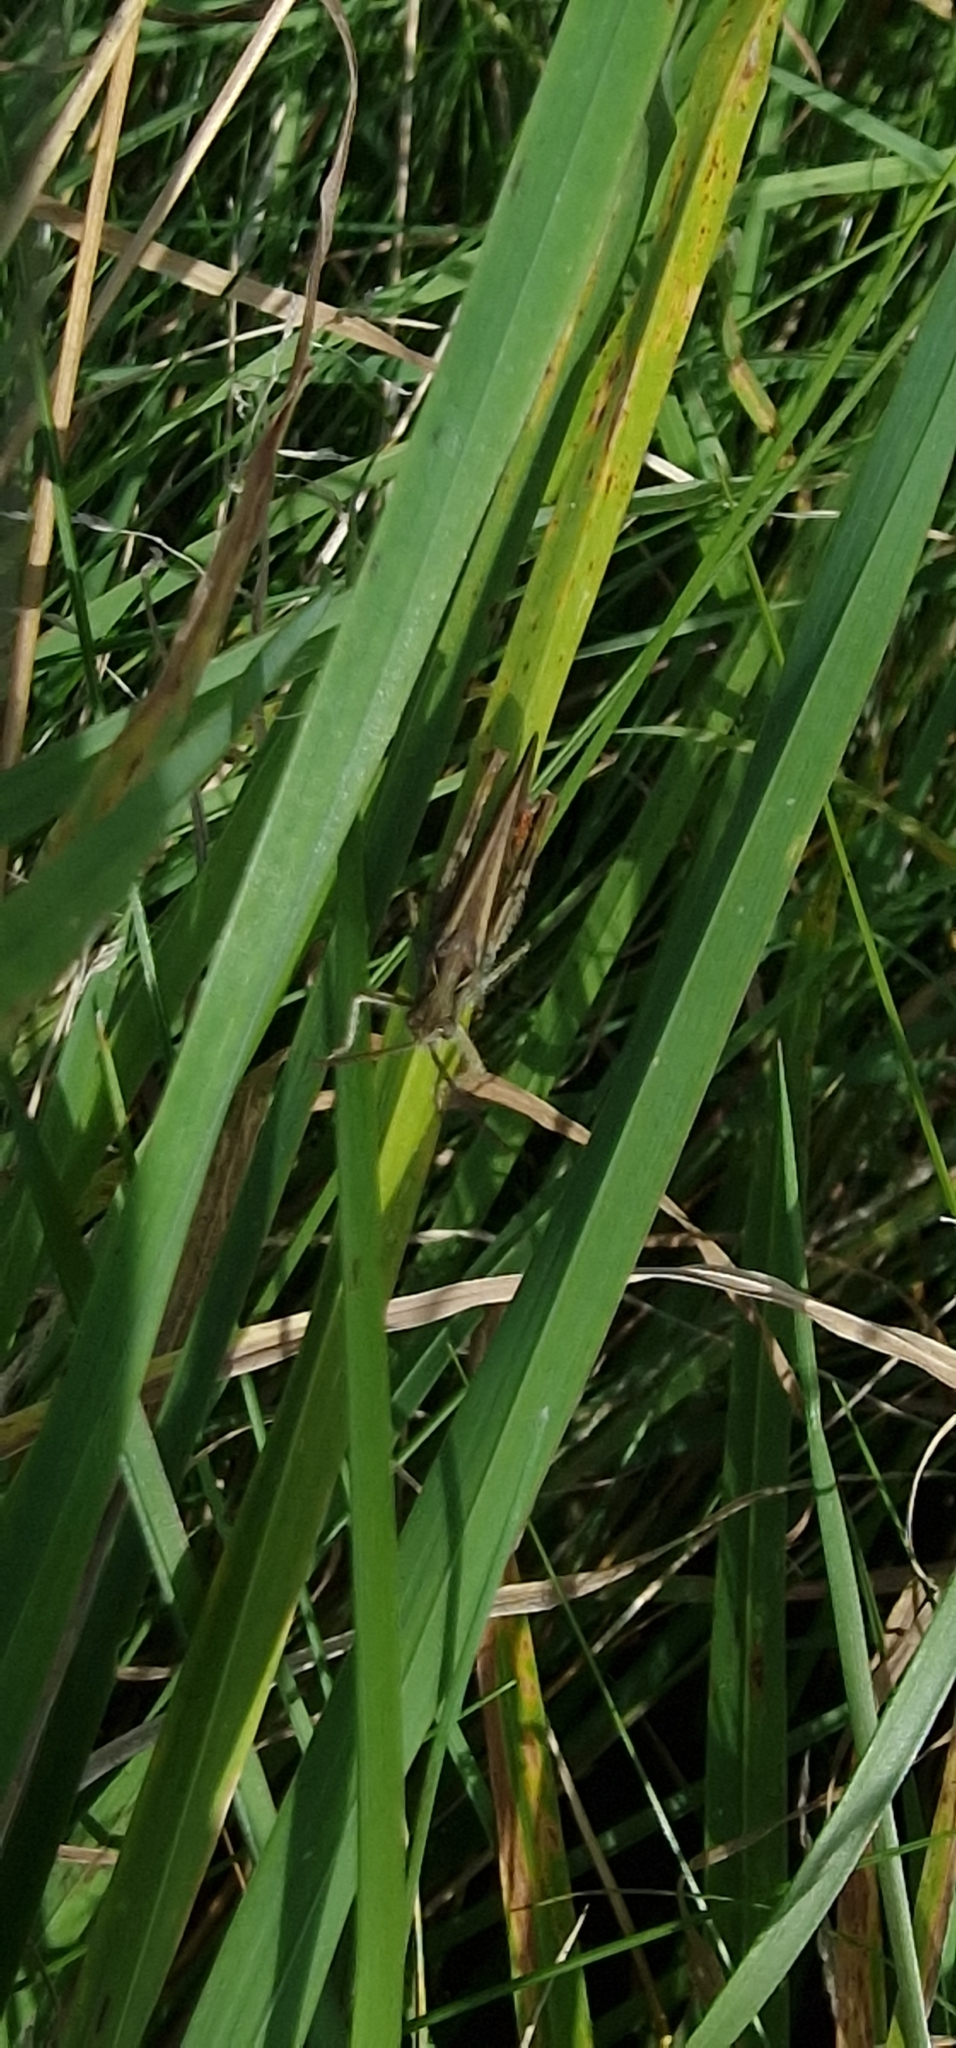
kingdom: Animalia
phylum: Arthropoda
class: Insecta
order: Orthoptera
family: Acrididae
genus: Chorthippus
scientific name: Chorthippus brunneus
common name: Field grasshopper
